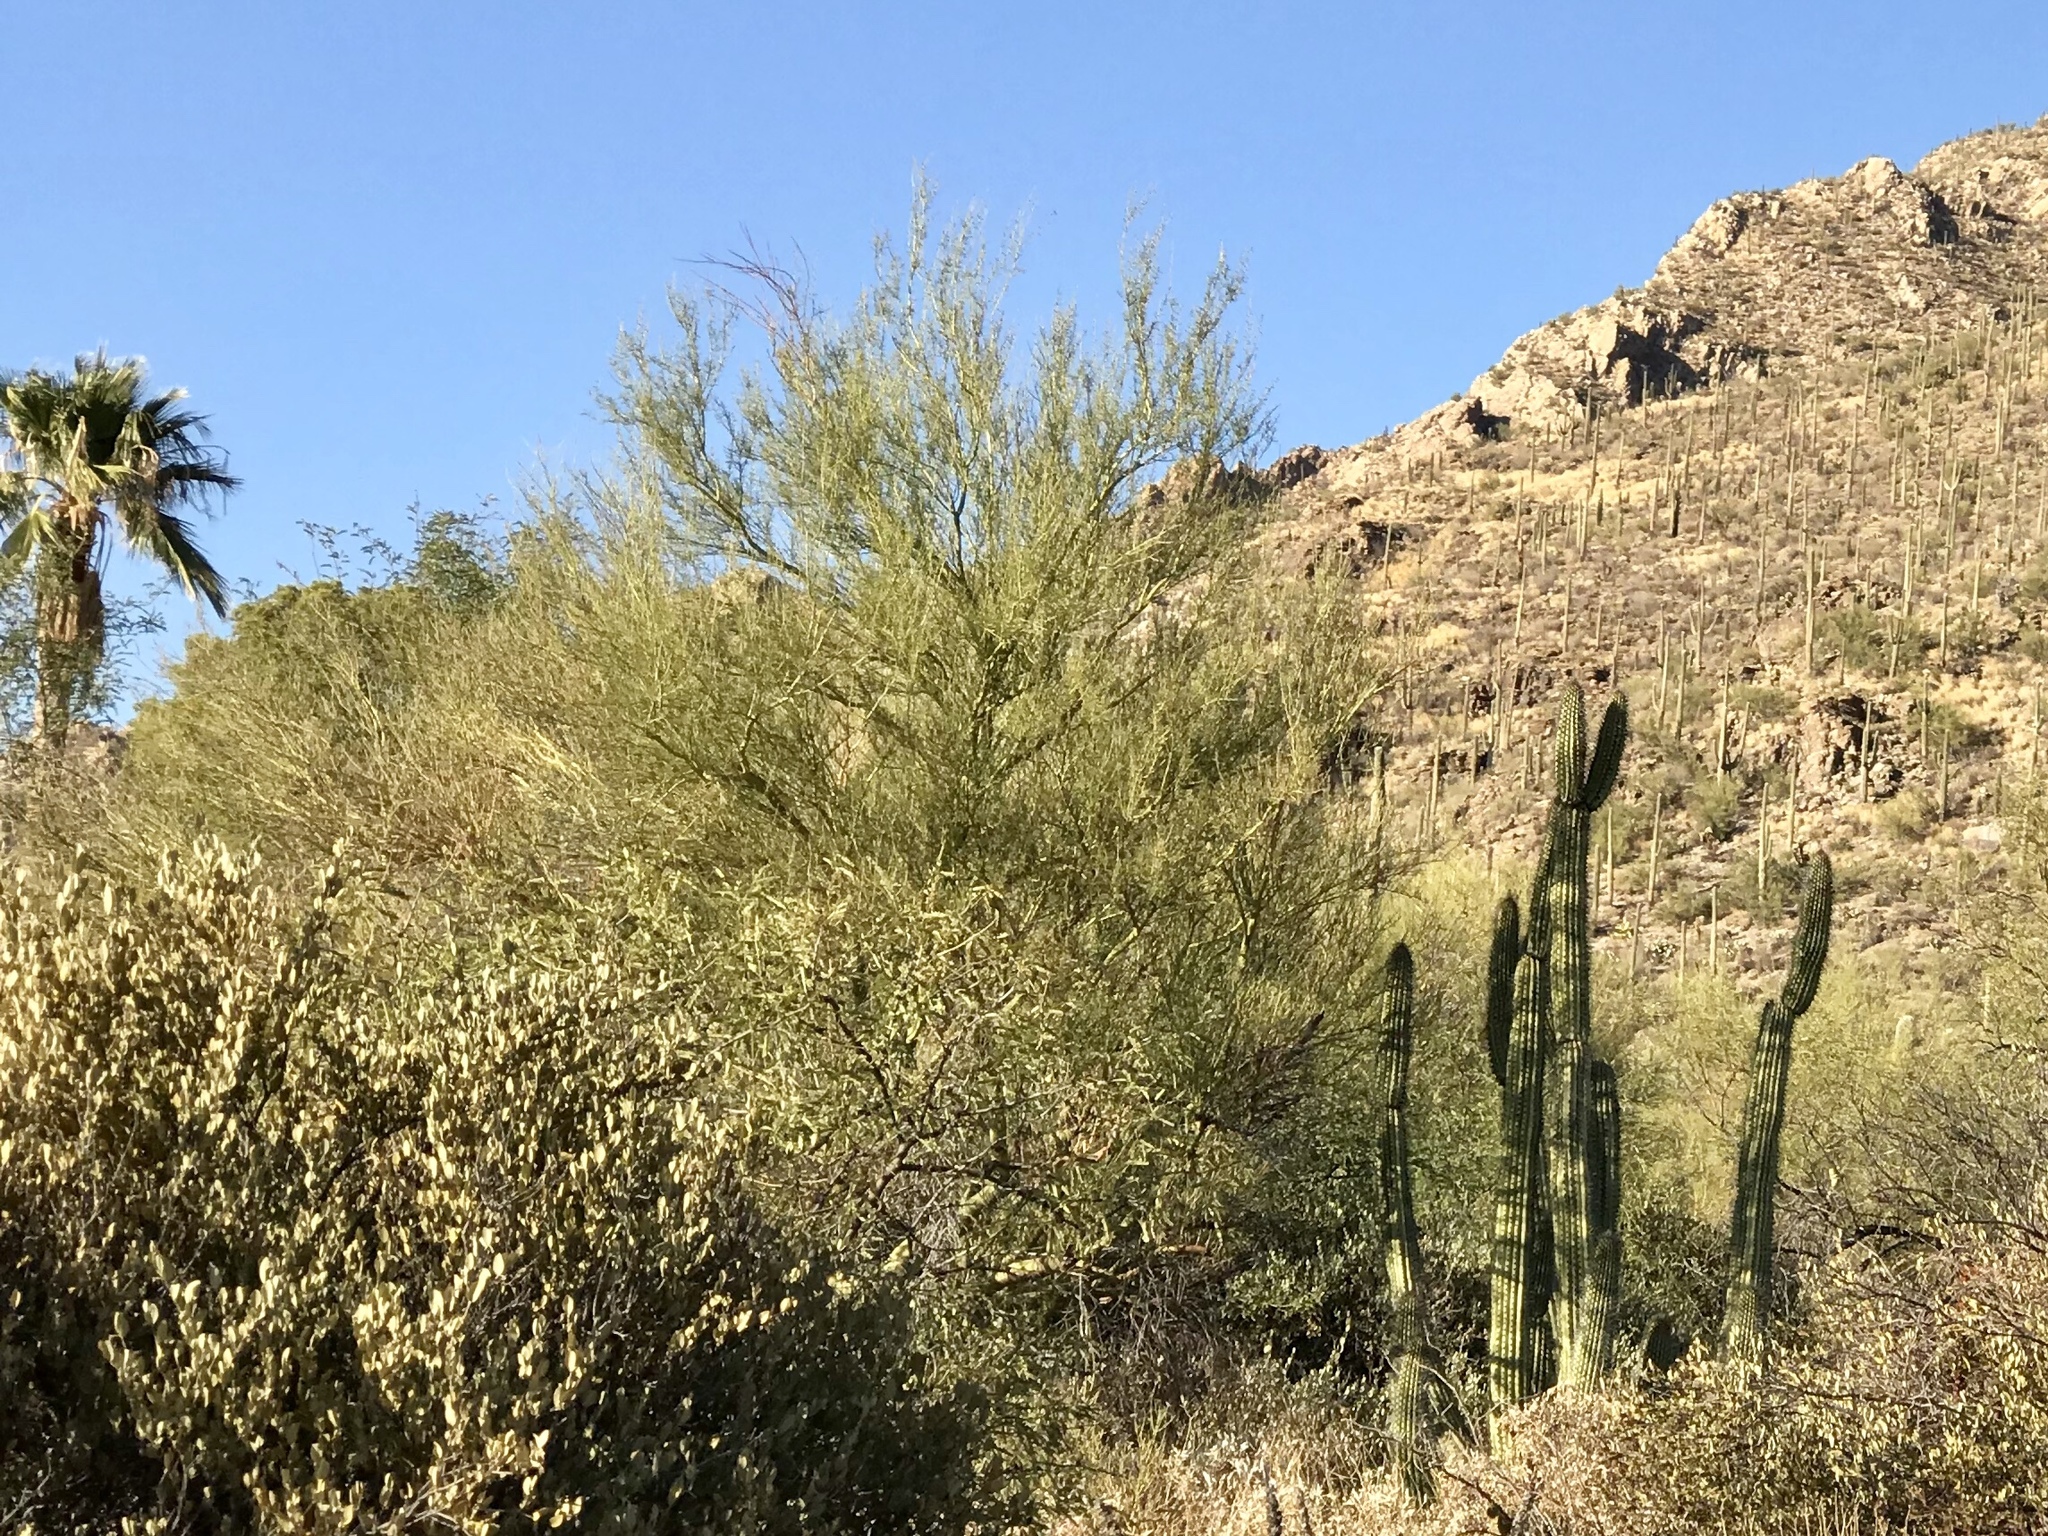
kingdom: Plantae
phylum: Tracheophyta
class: Magnoliopsida
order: Fabales
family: Fabaceae
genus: Parkinsonia
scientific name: Parkinsonia microphylla
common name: Yellow paloverde
